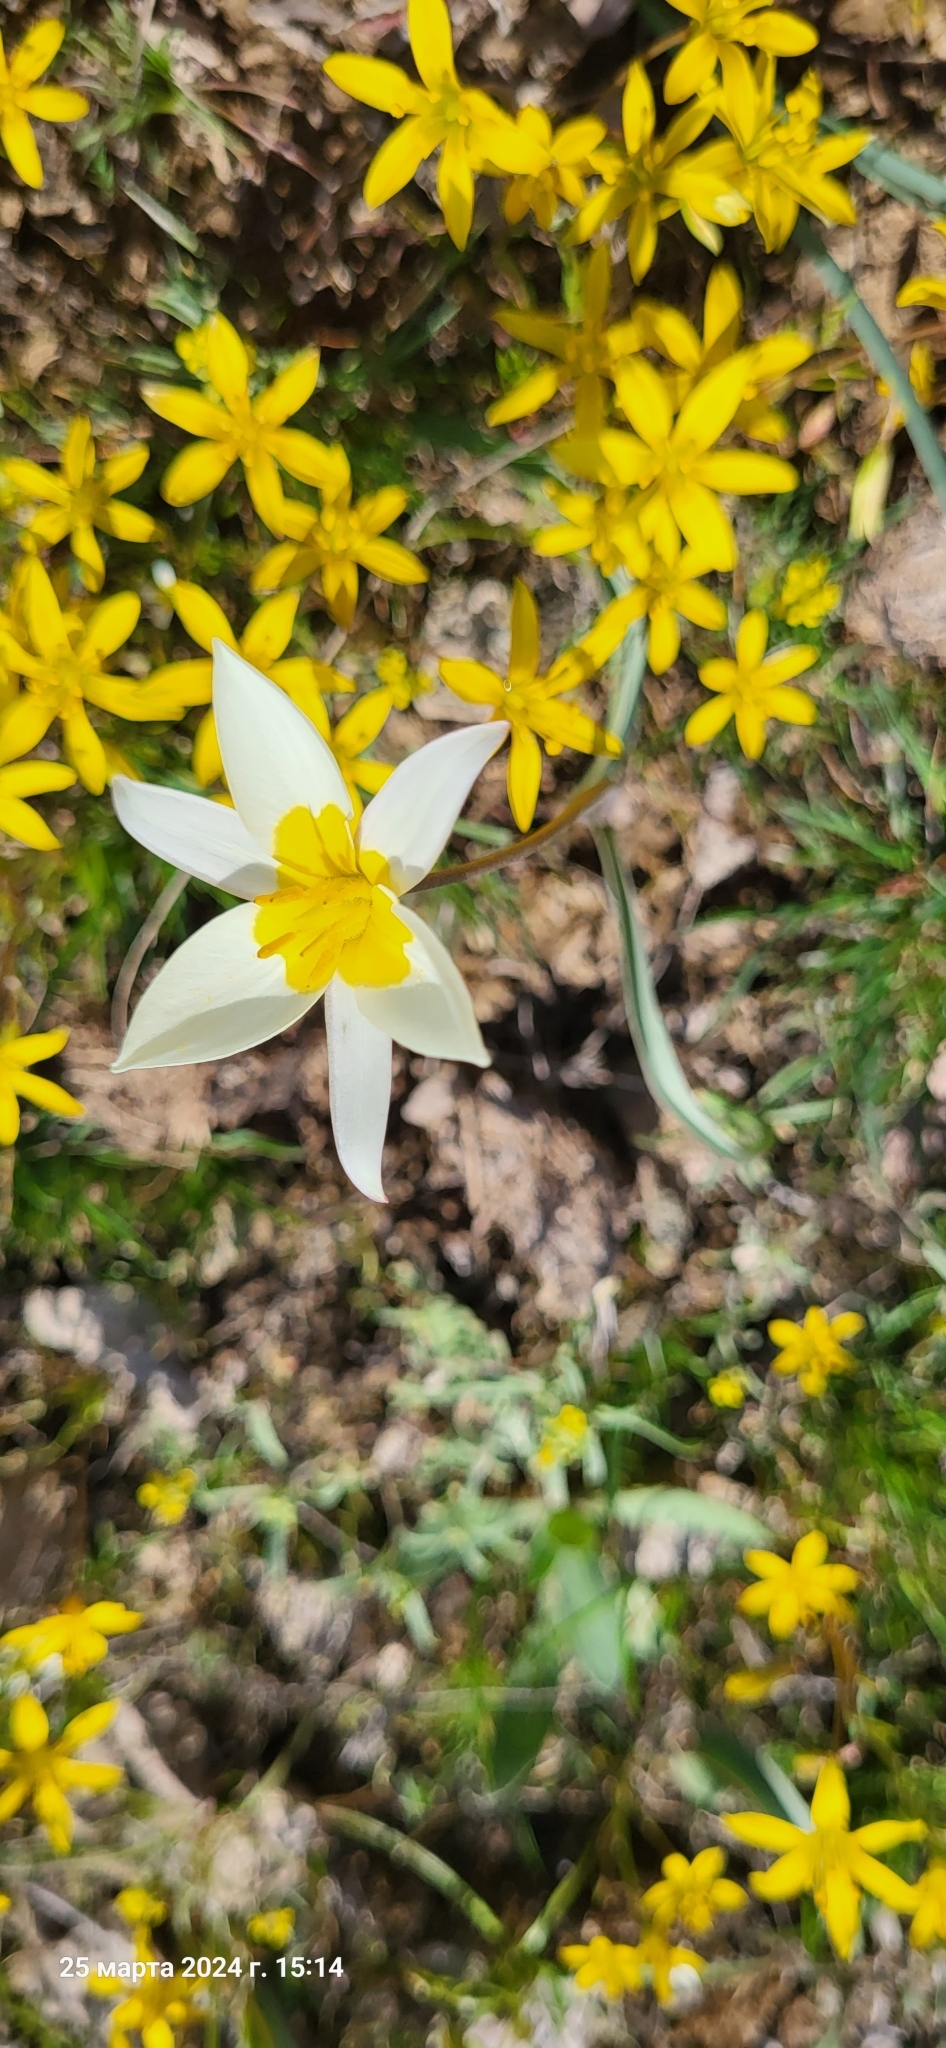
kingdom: Plantae
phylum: Tracheophyta
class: Liliopsida
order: Liliales
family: Liliaceae
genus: Tulipa
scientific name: Tulipa biflora
